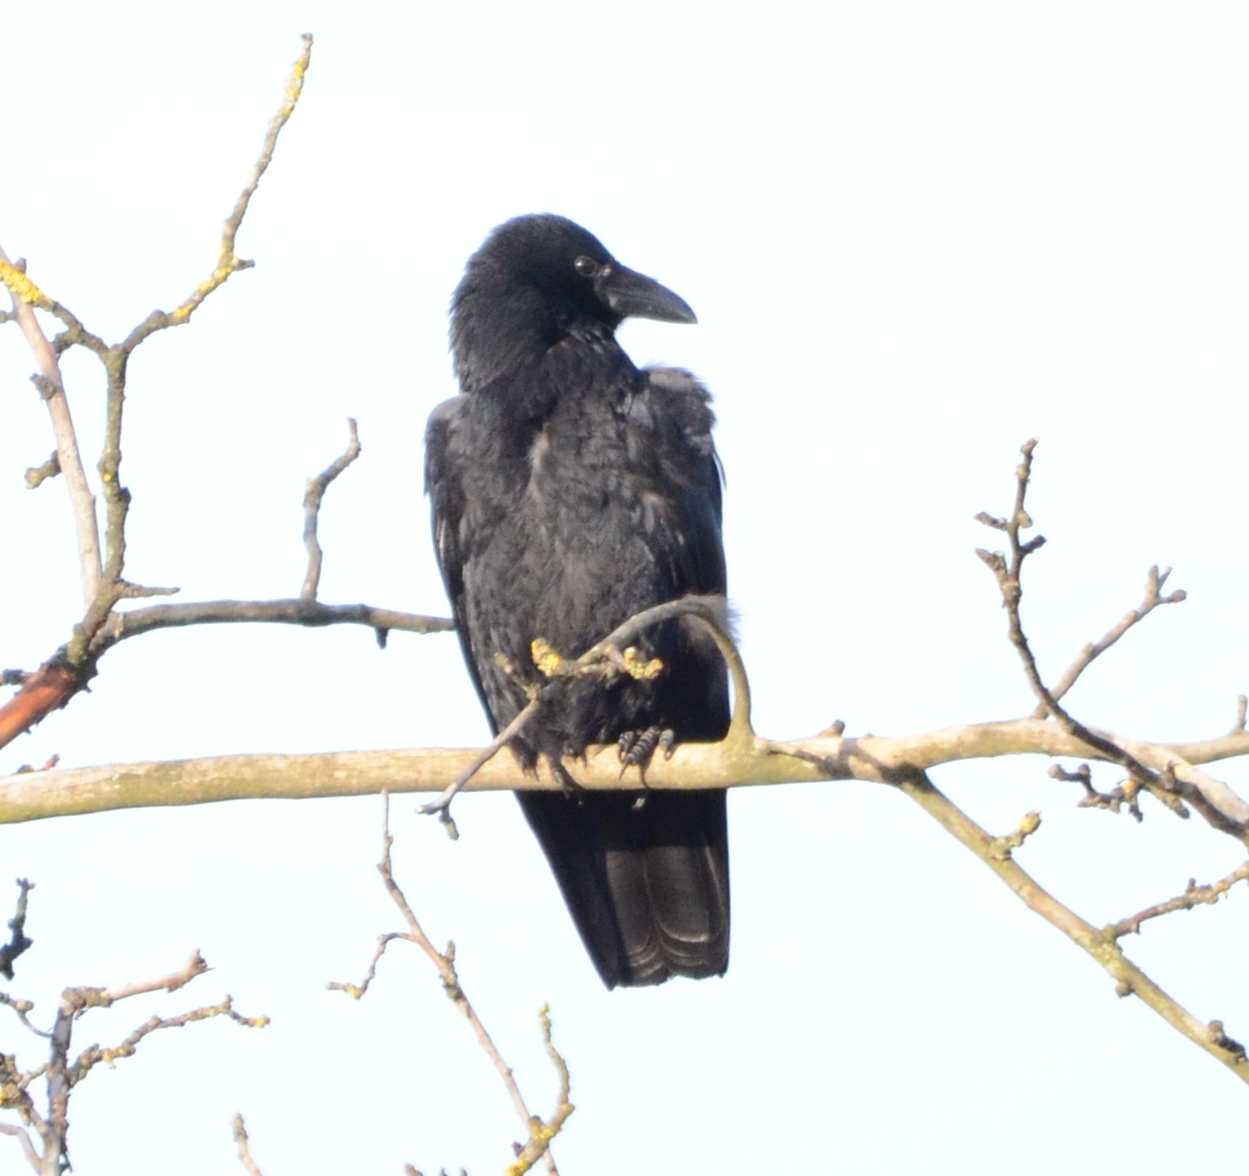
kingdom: Animalia
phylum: Chordata
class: Aves
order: Passeriformes
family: Corvidae
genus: Corvus
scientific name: Corvus corone
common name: Carrion crow
